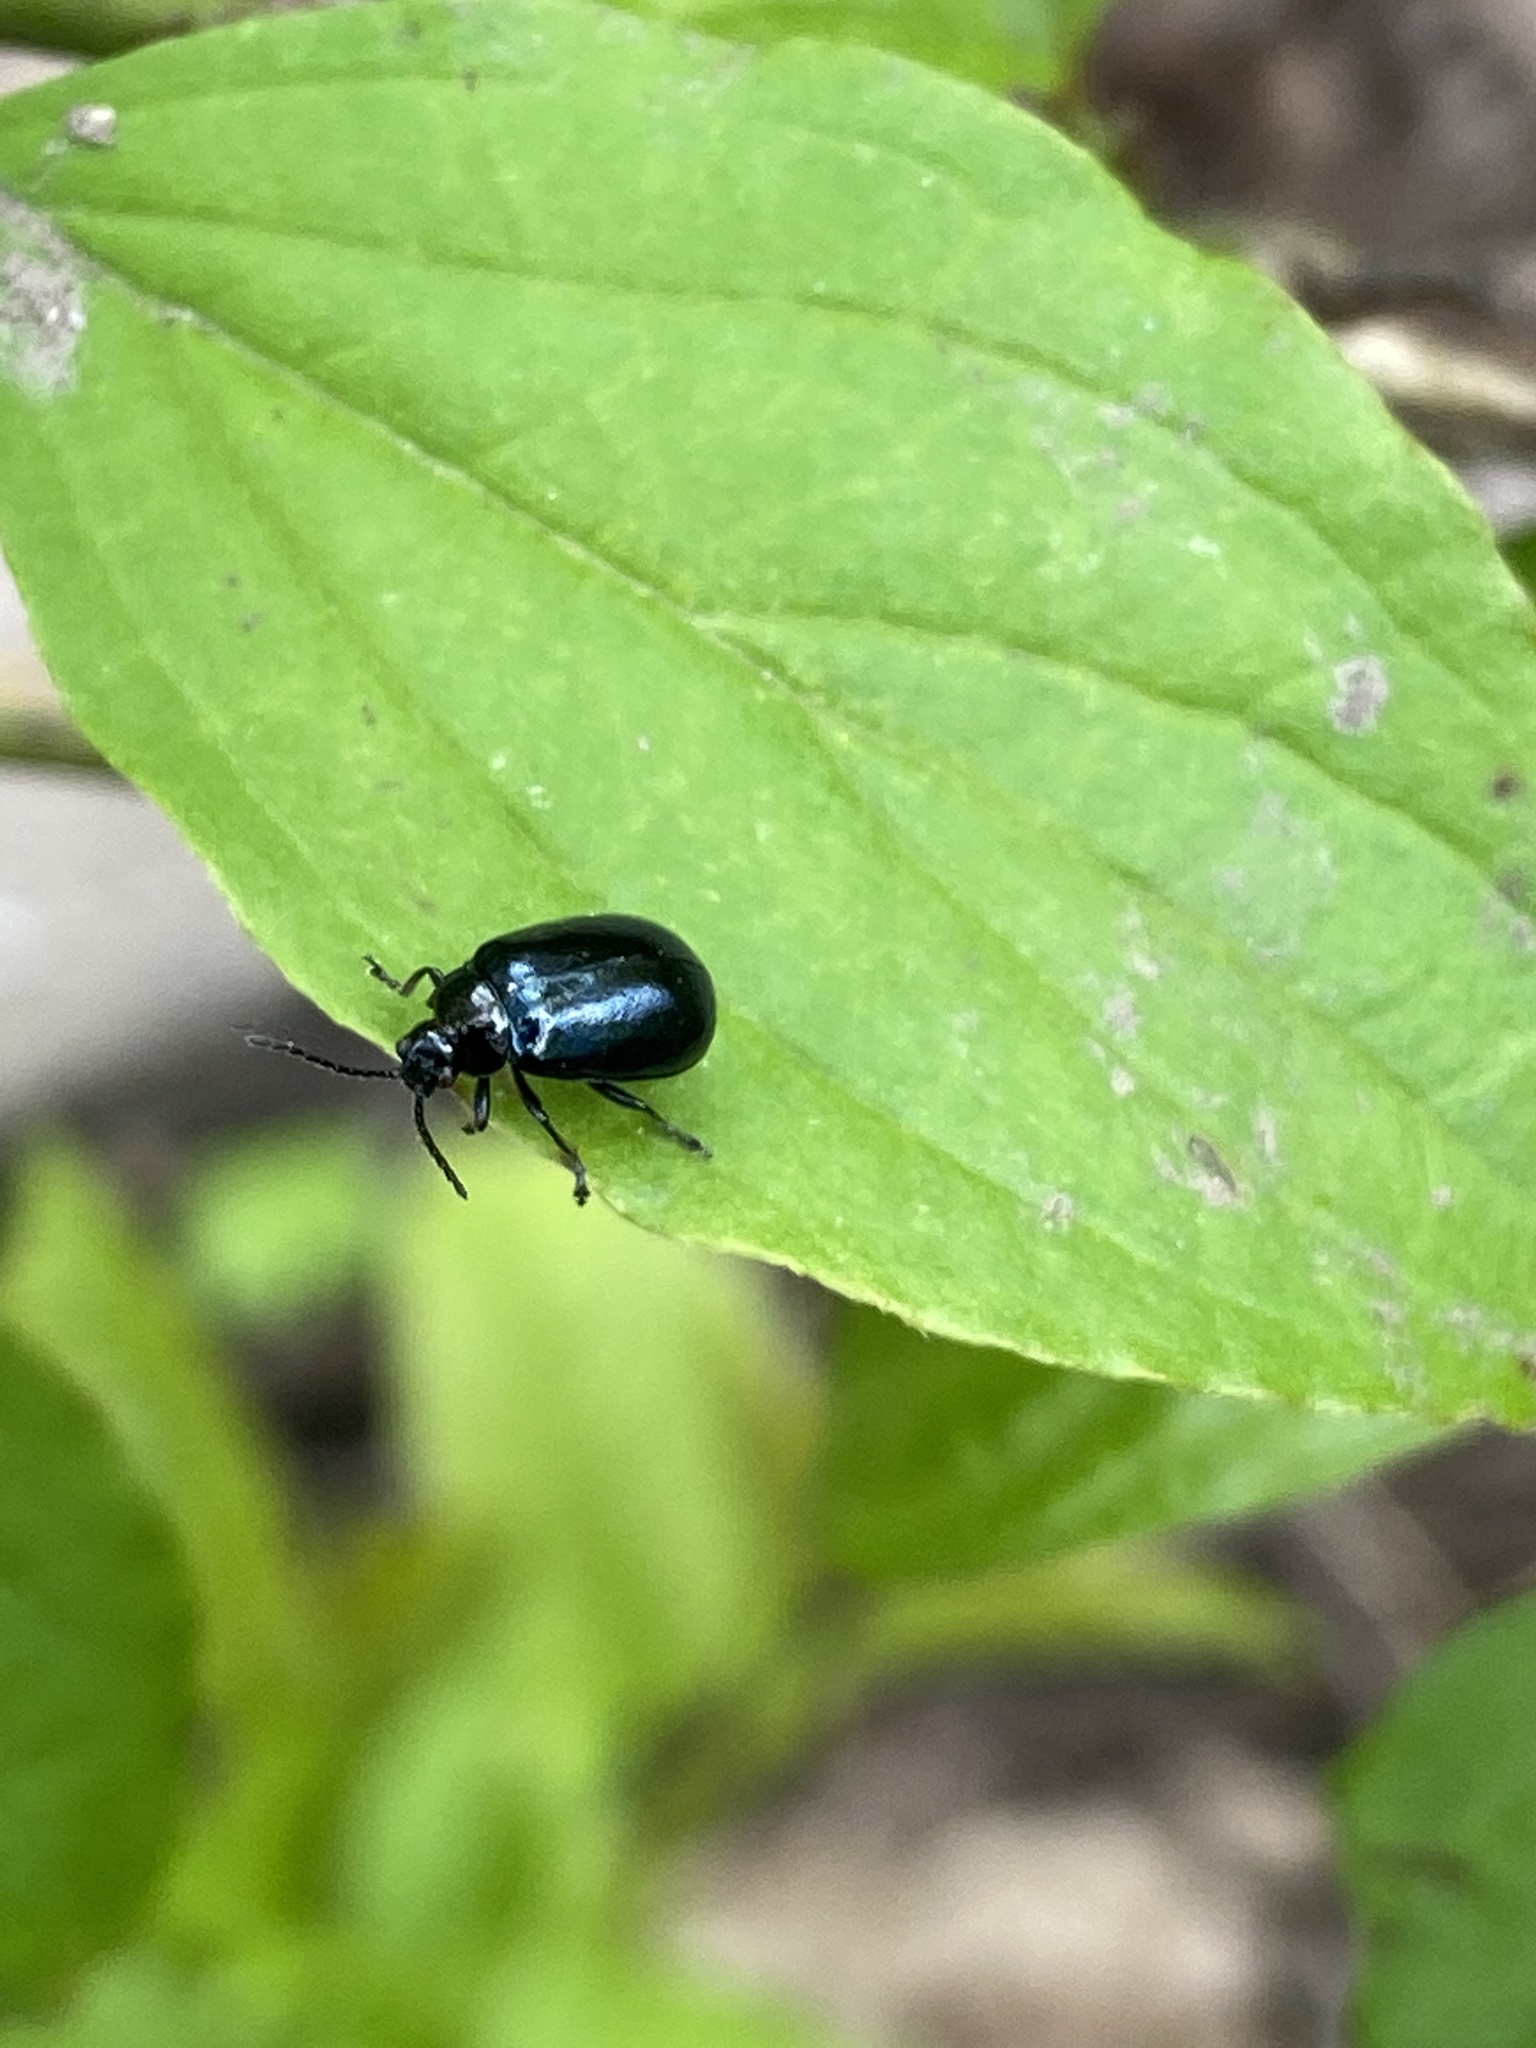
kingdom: Animalia
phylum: Arthropoda
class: Insecta
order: Coleoptera
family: Chrysomelidae
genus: Agelastica
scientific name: Agelastica alni
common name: Alder leaf beetle
